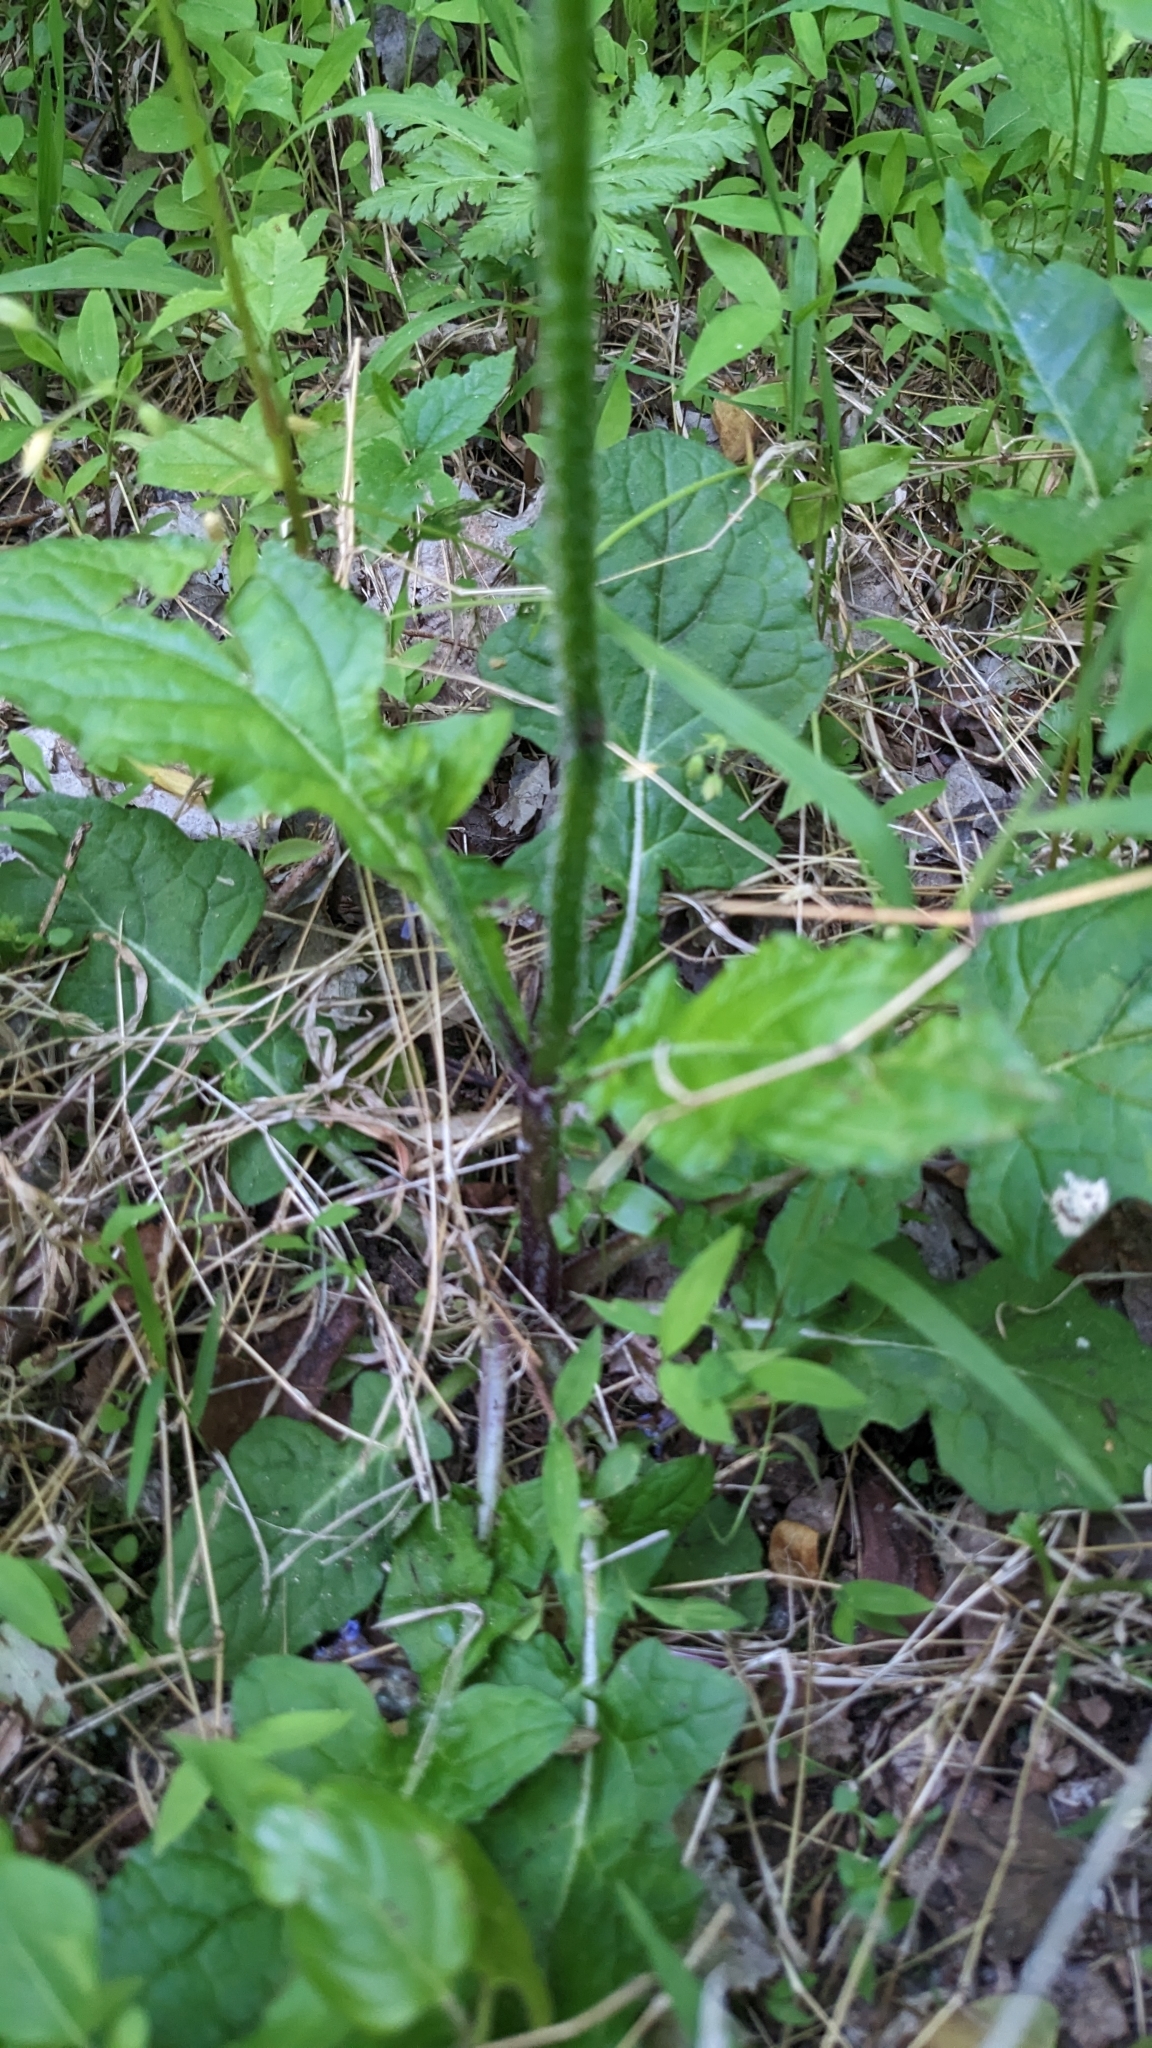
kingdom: Plantae
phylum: Tracheophyta
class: Magnoliopsida
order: Lamiales
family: Lamiaceae
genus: Salvia
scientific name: Salvia lyrata
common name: Cancerweed
